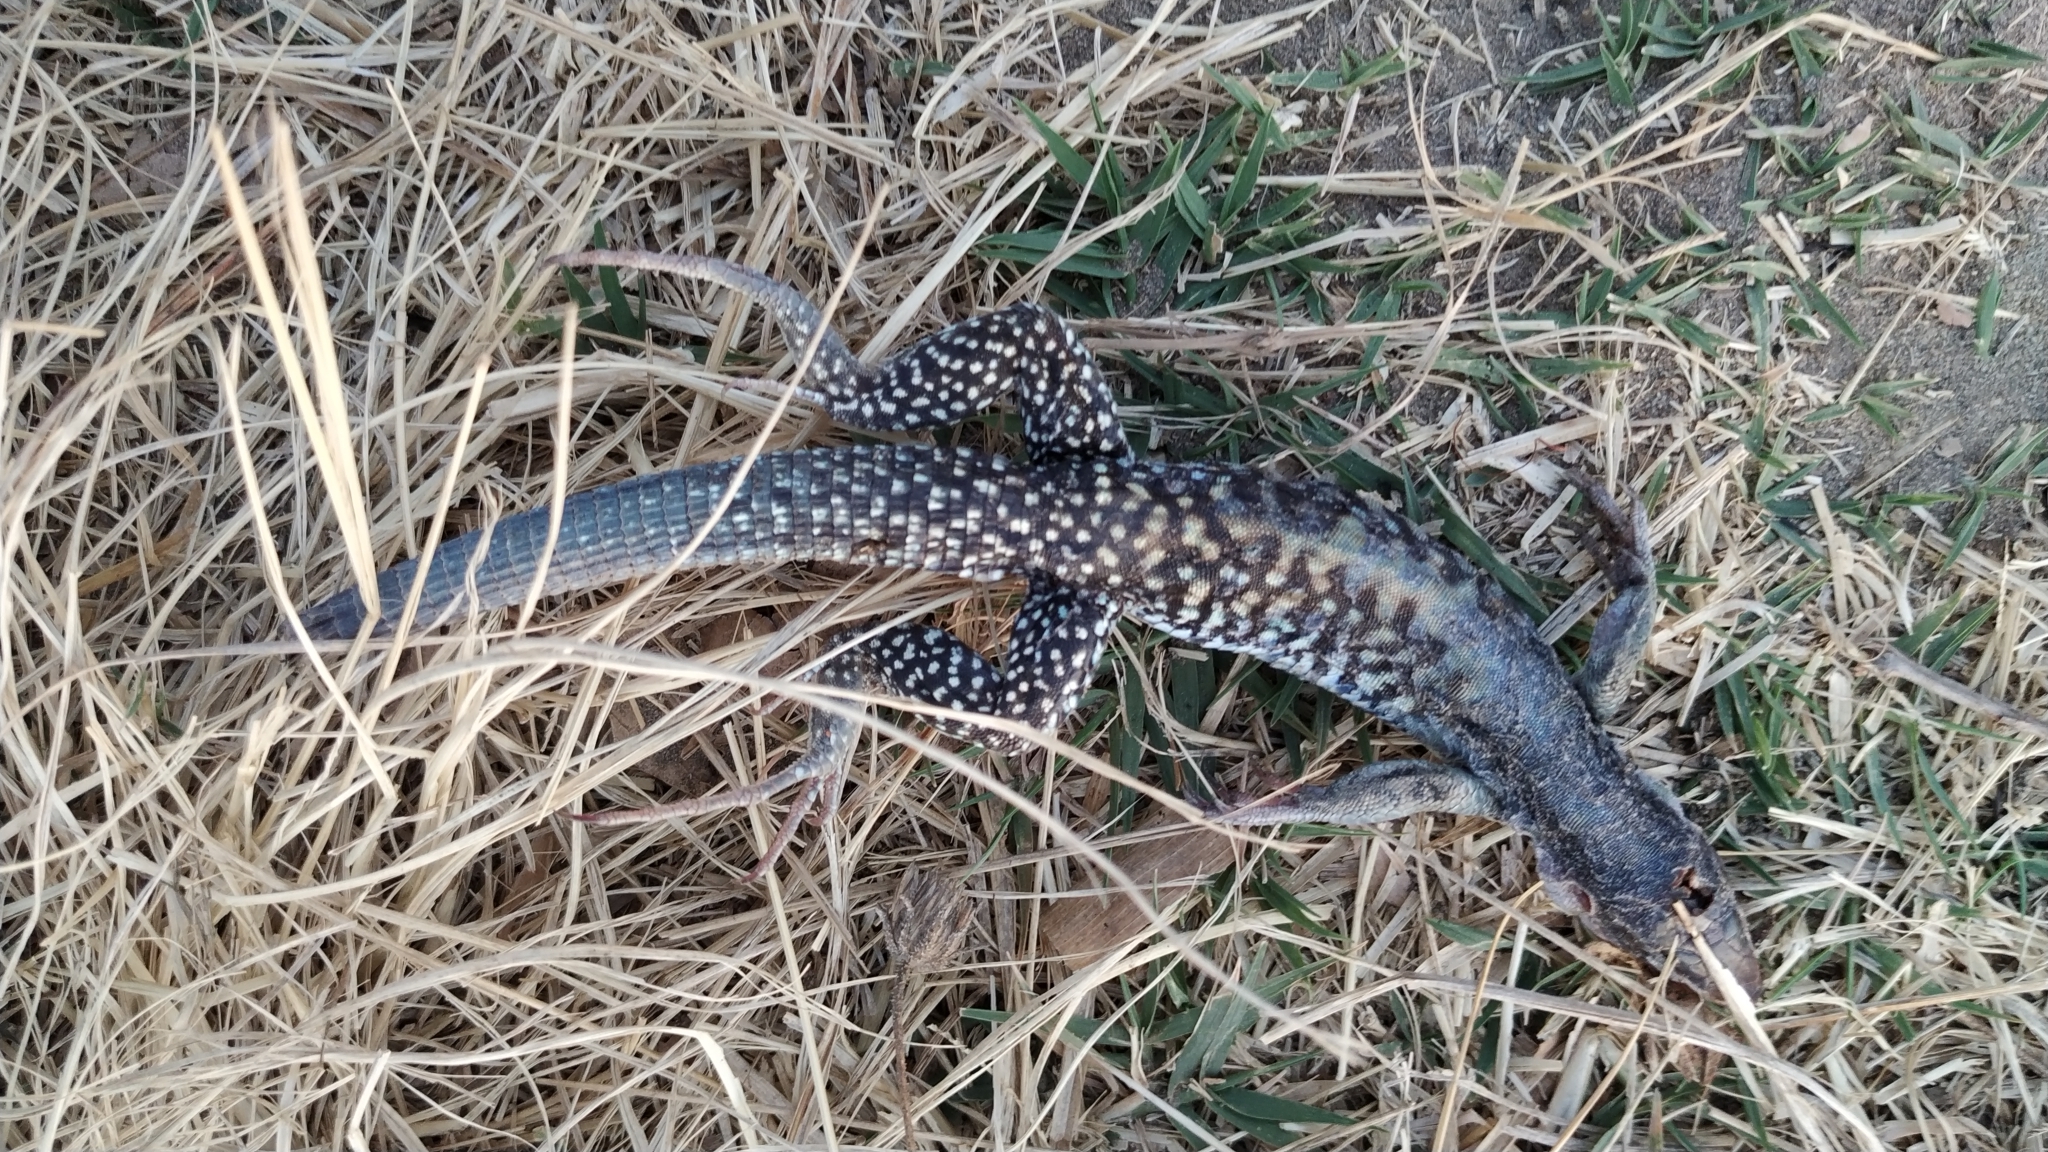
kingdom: Animalia
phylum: Chordata
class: Squamata
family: Teiidae
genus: Aspidoscelis
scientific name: Aspidoscelis costatus
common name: Western mexico whiptail
